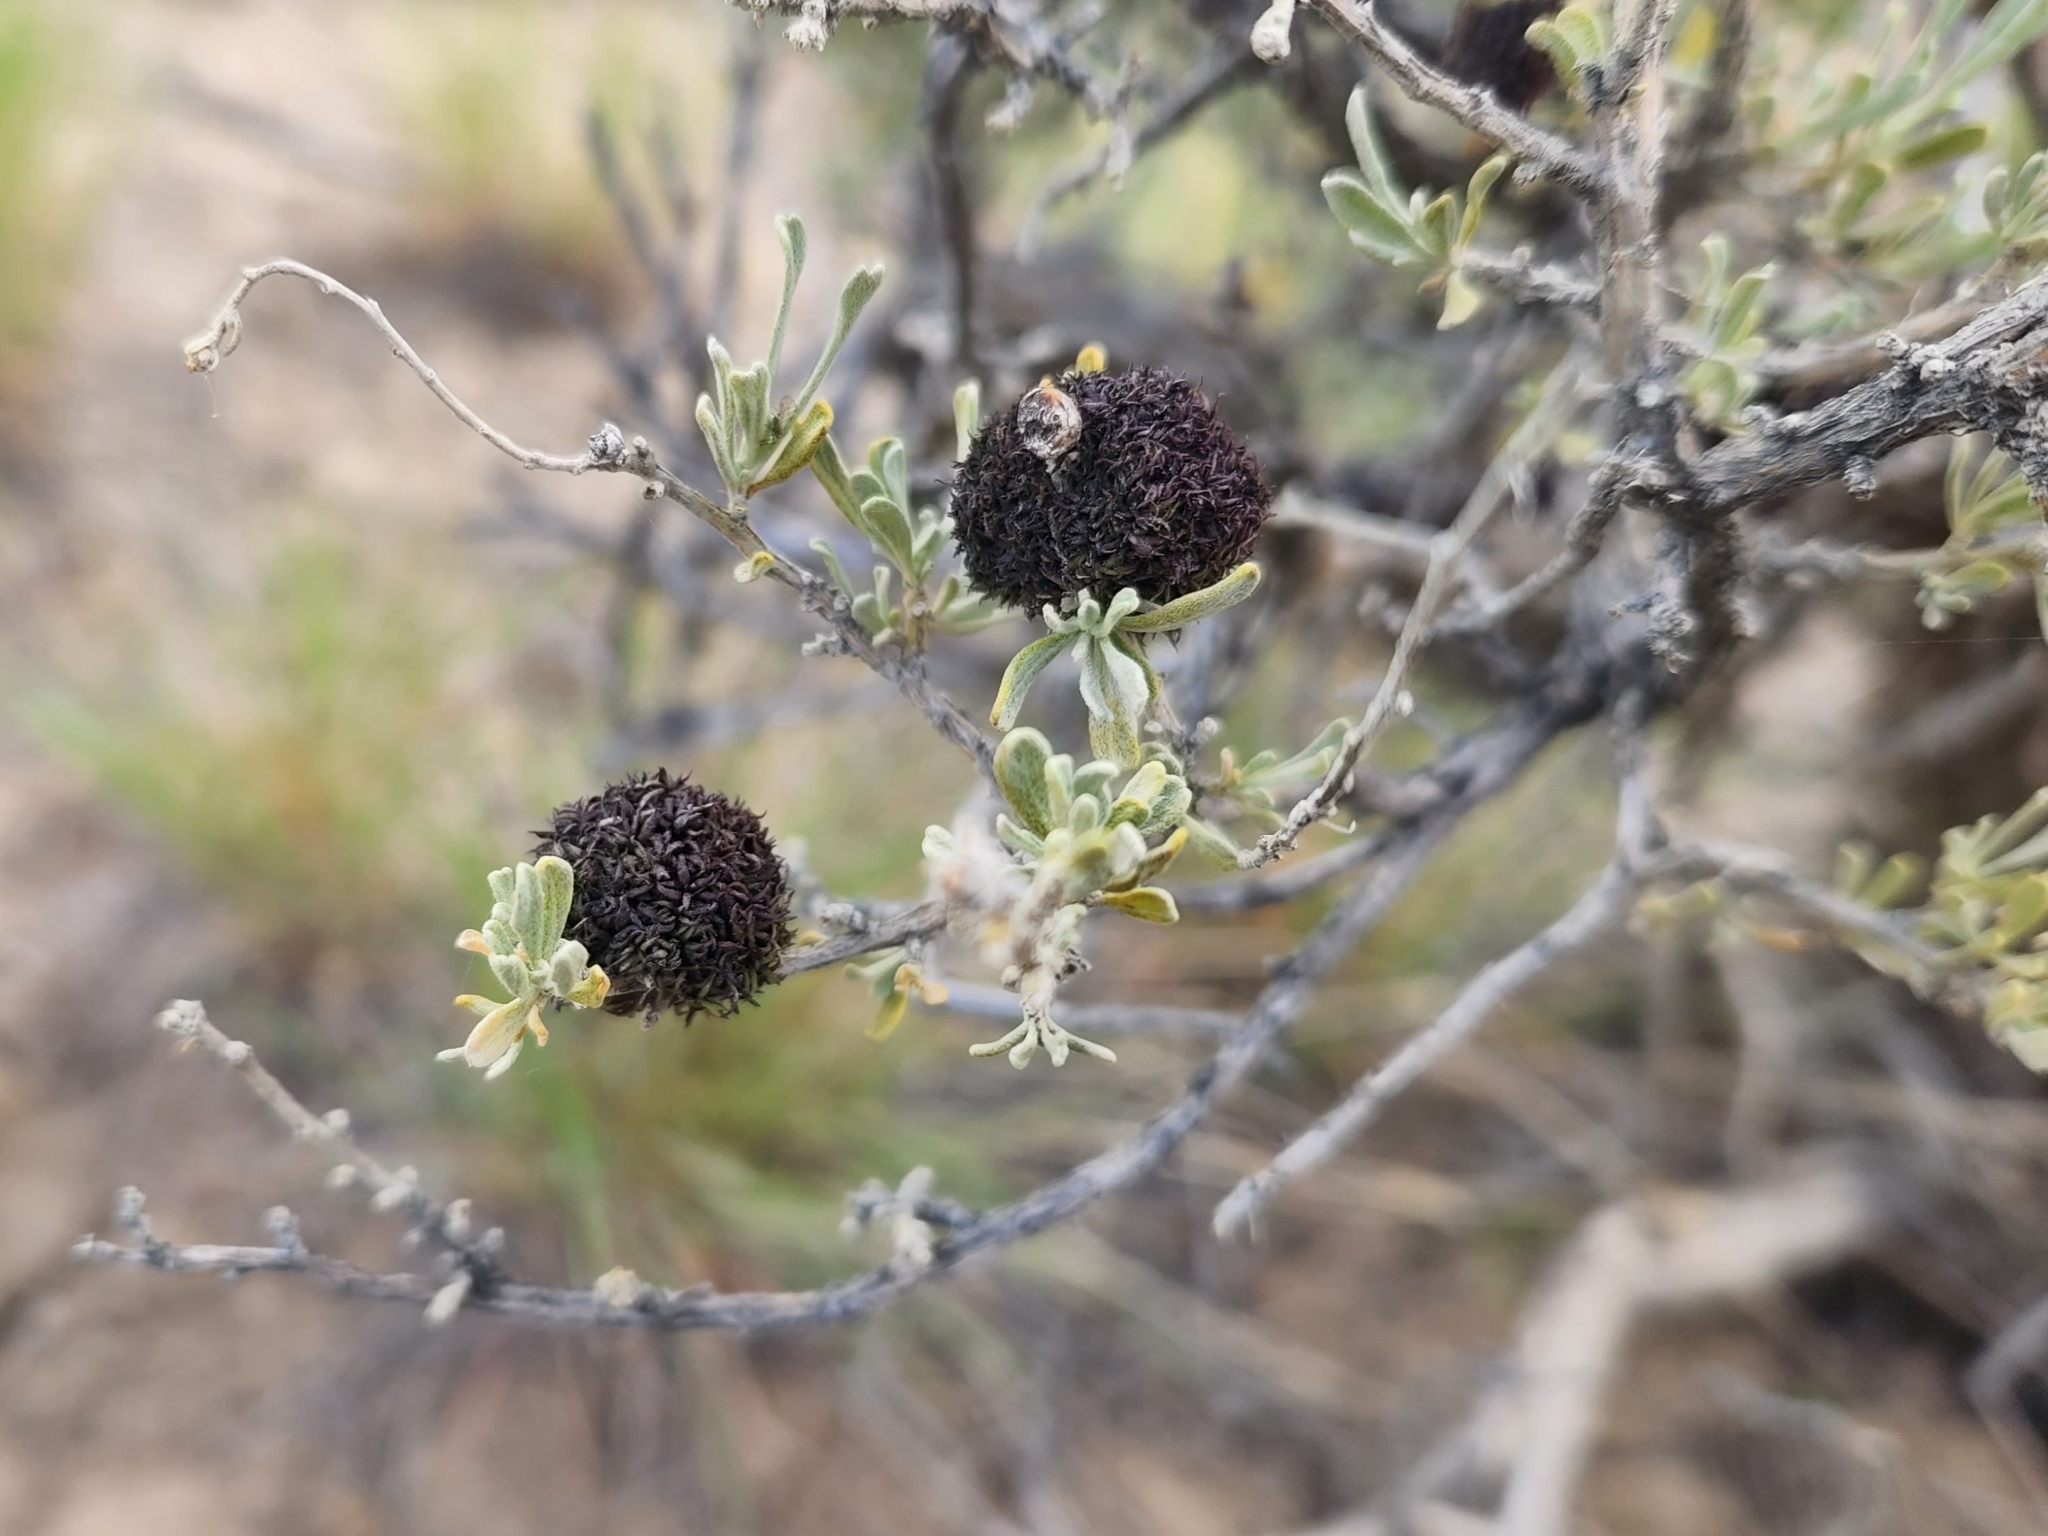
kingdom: Animalia
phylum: Arthropoda
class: Insecta
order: Diptera
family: Cecidomyiidae
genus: Rhopalomyia
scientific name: Rhopalomyia medusa
